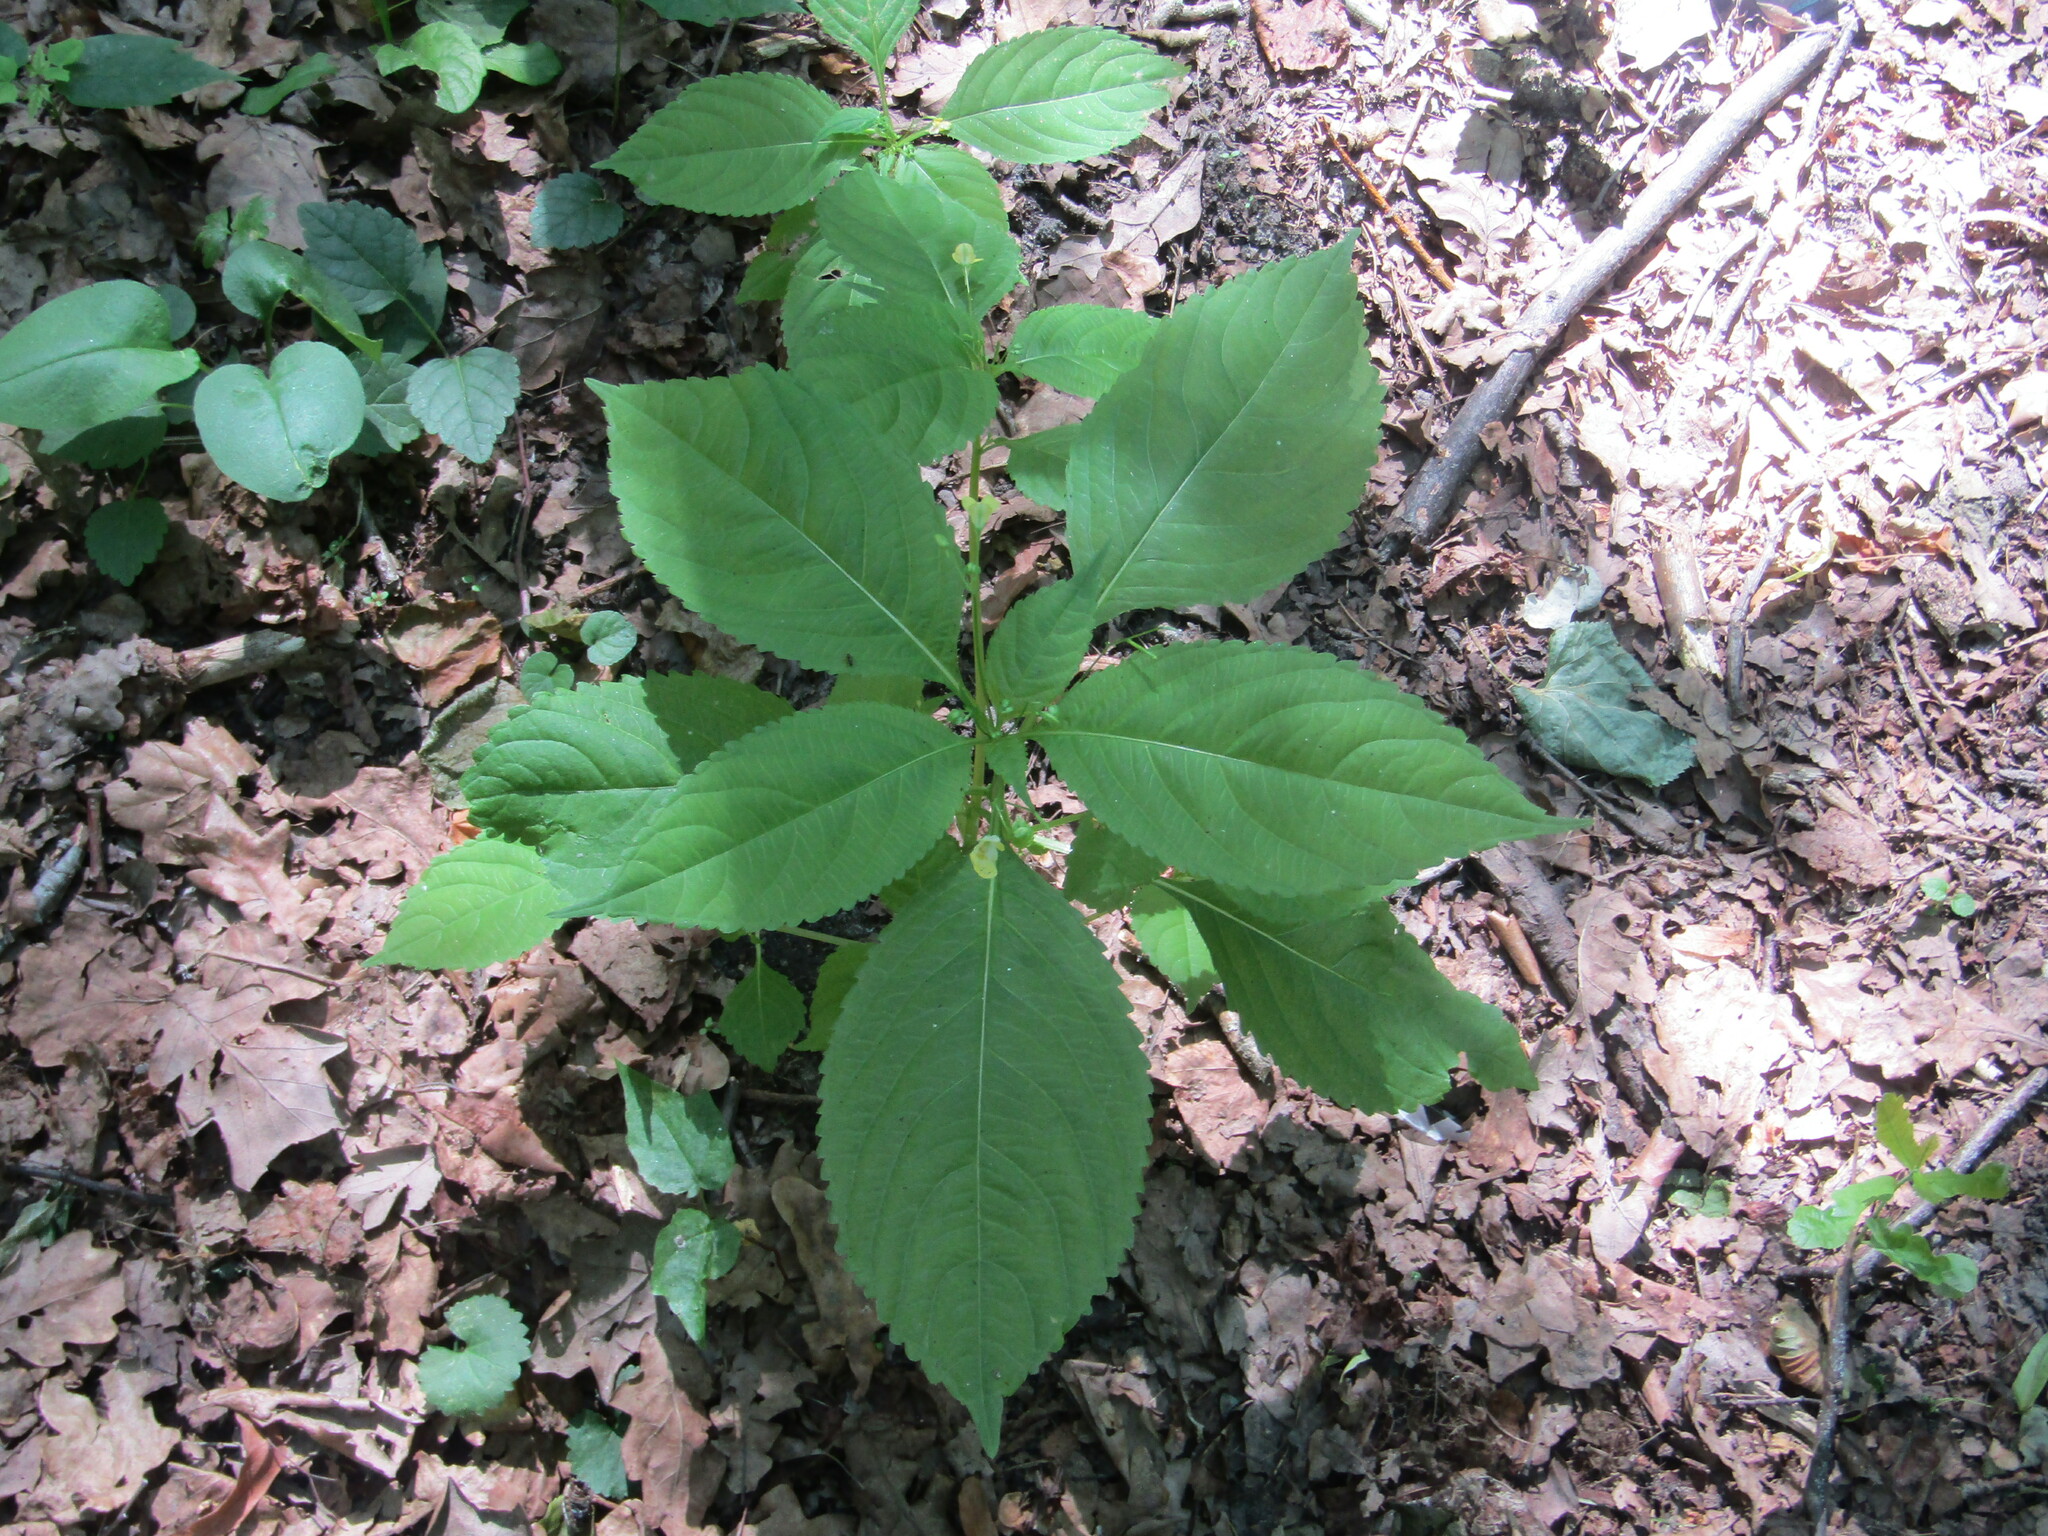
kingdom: Plantae
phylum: Tracheophyta
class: Magnoliopsida
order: Ericales
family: Balsaminaceae
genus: Impatiens
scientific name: Impatiens parviflora
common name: Small balsam
